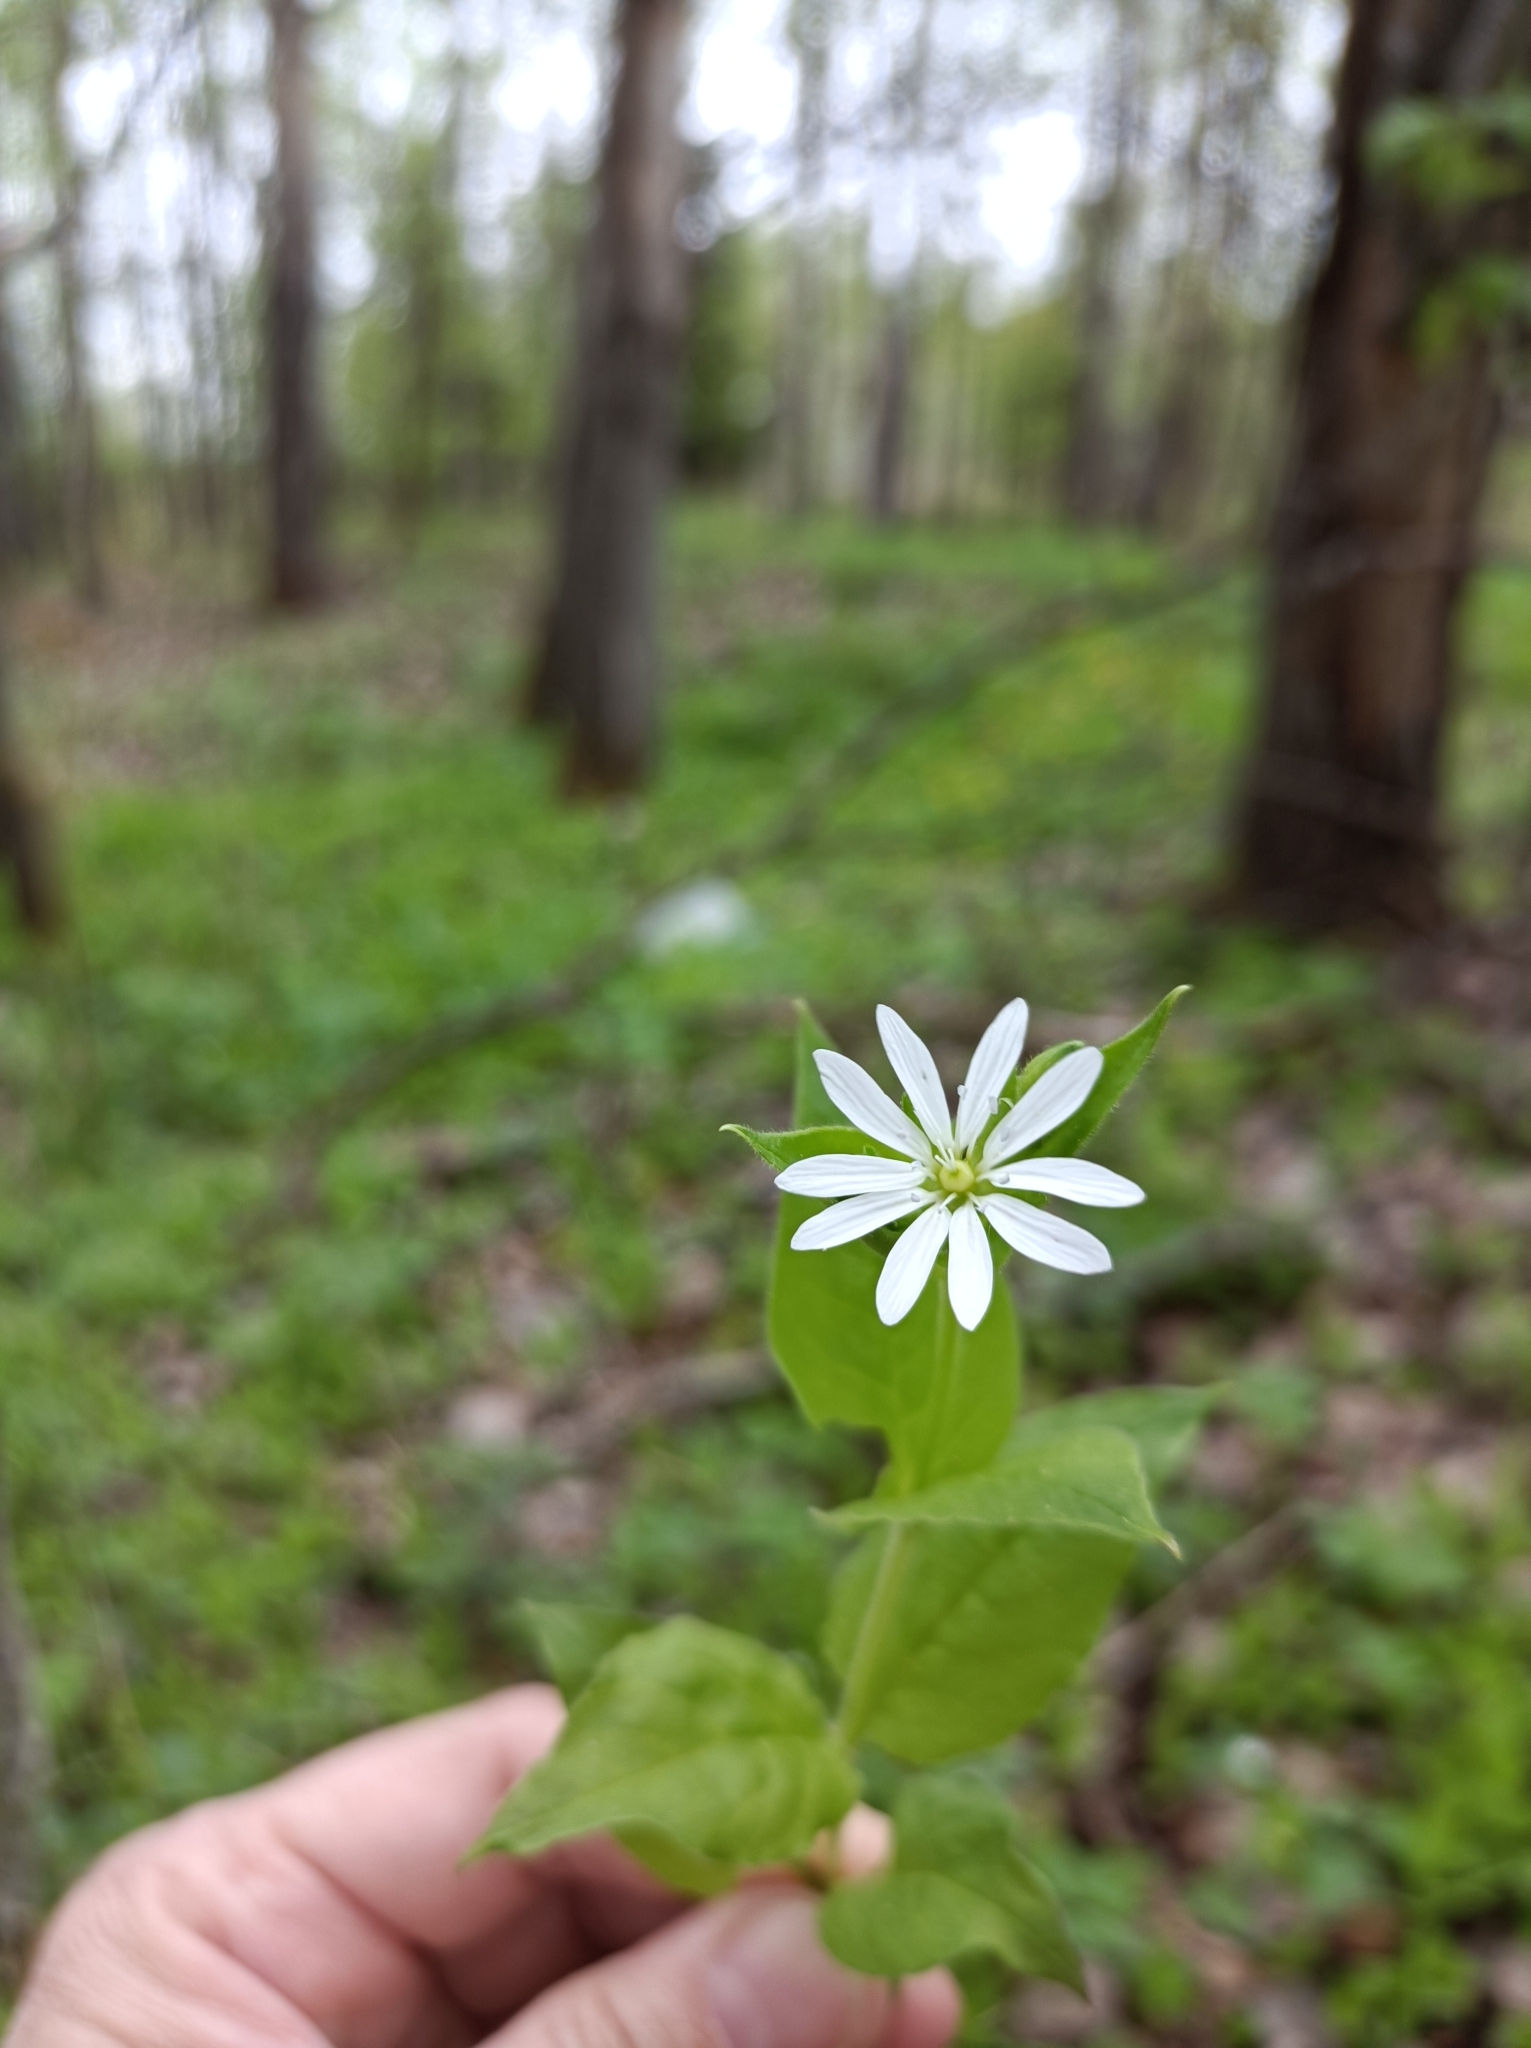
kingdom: Plantae
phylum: Tracheophyta
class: Magnoliopsida
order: Caryophyllales
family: Caryophyllaceae
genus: Stellaria
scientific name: Stellaria bungeana
